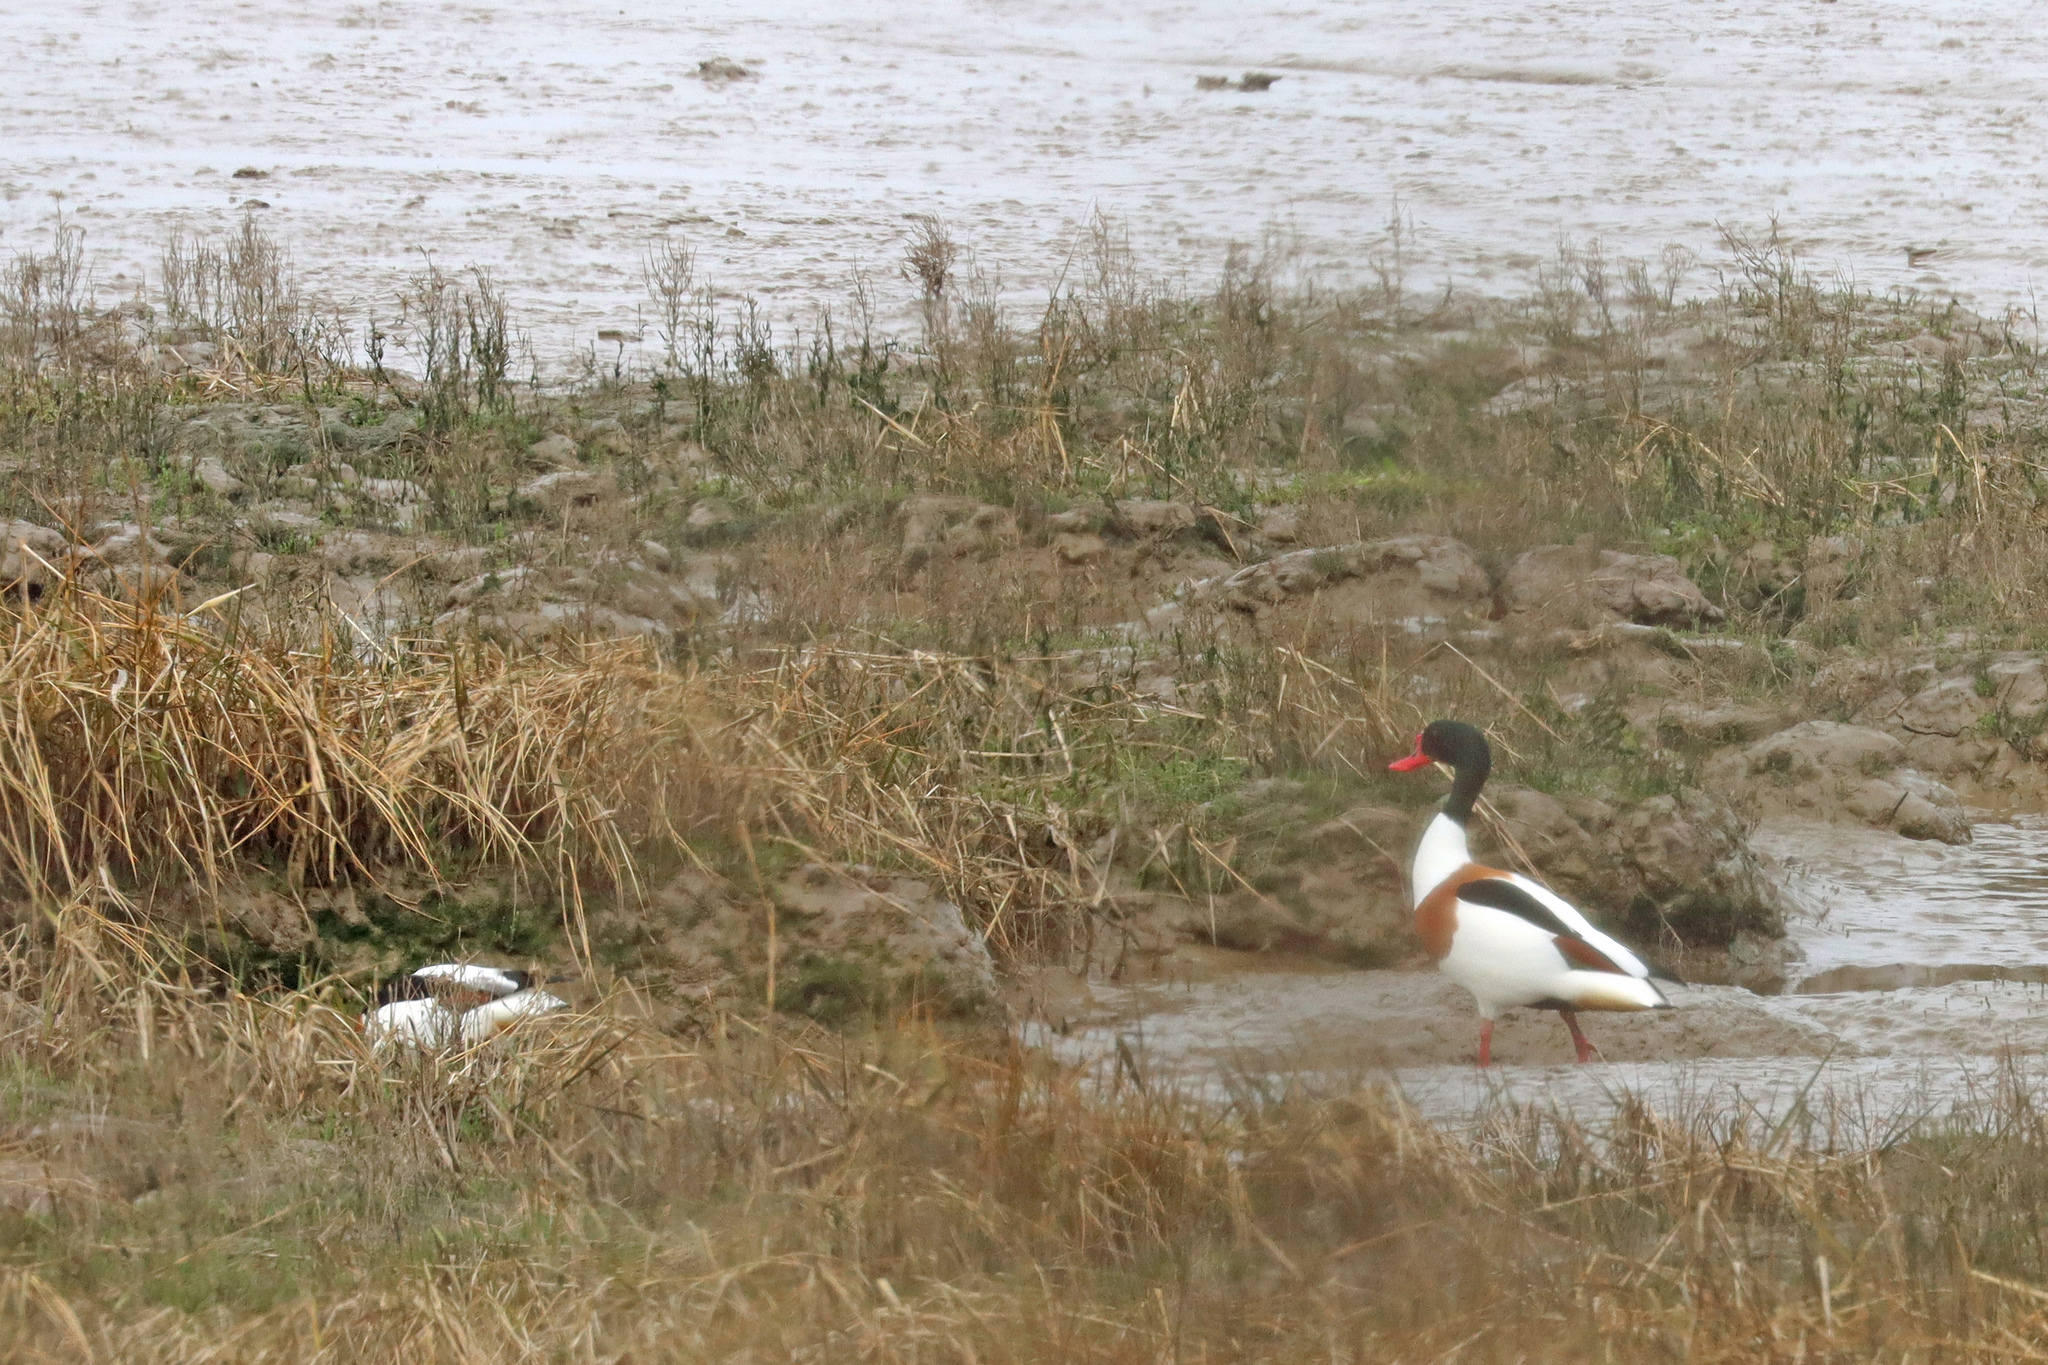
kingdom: Animalia
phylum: Chordata
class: Aves
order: Anseriformes
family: Anatidae
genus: Tadorna
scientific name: Tadorna tadorna
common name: Common shelduck
